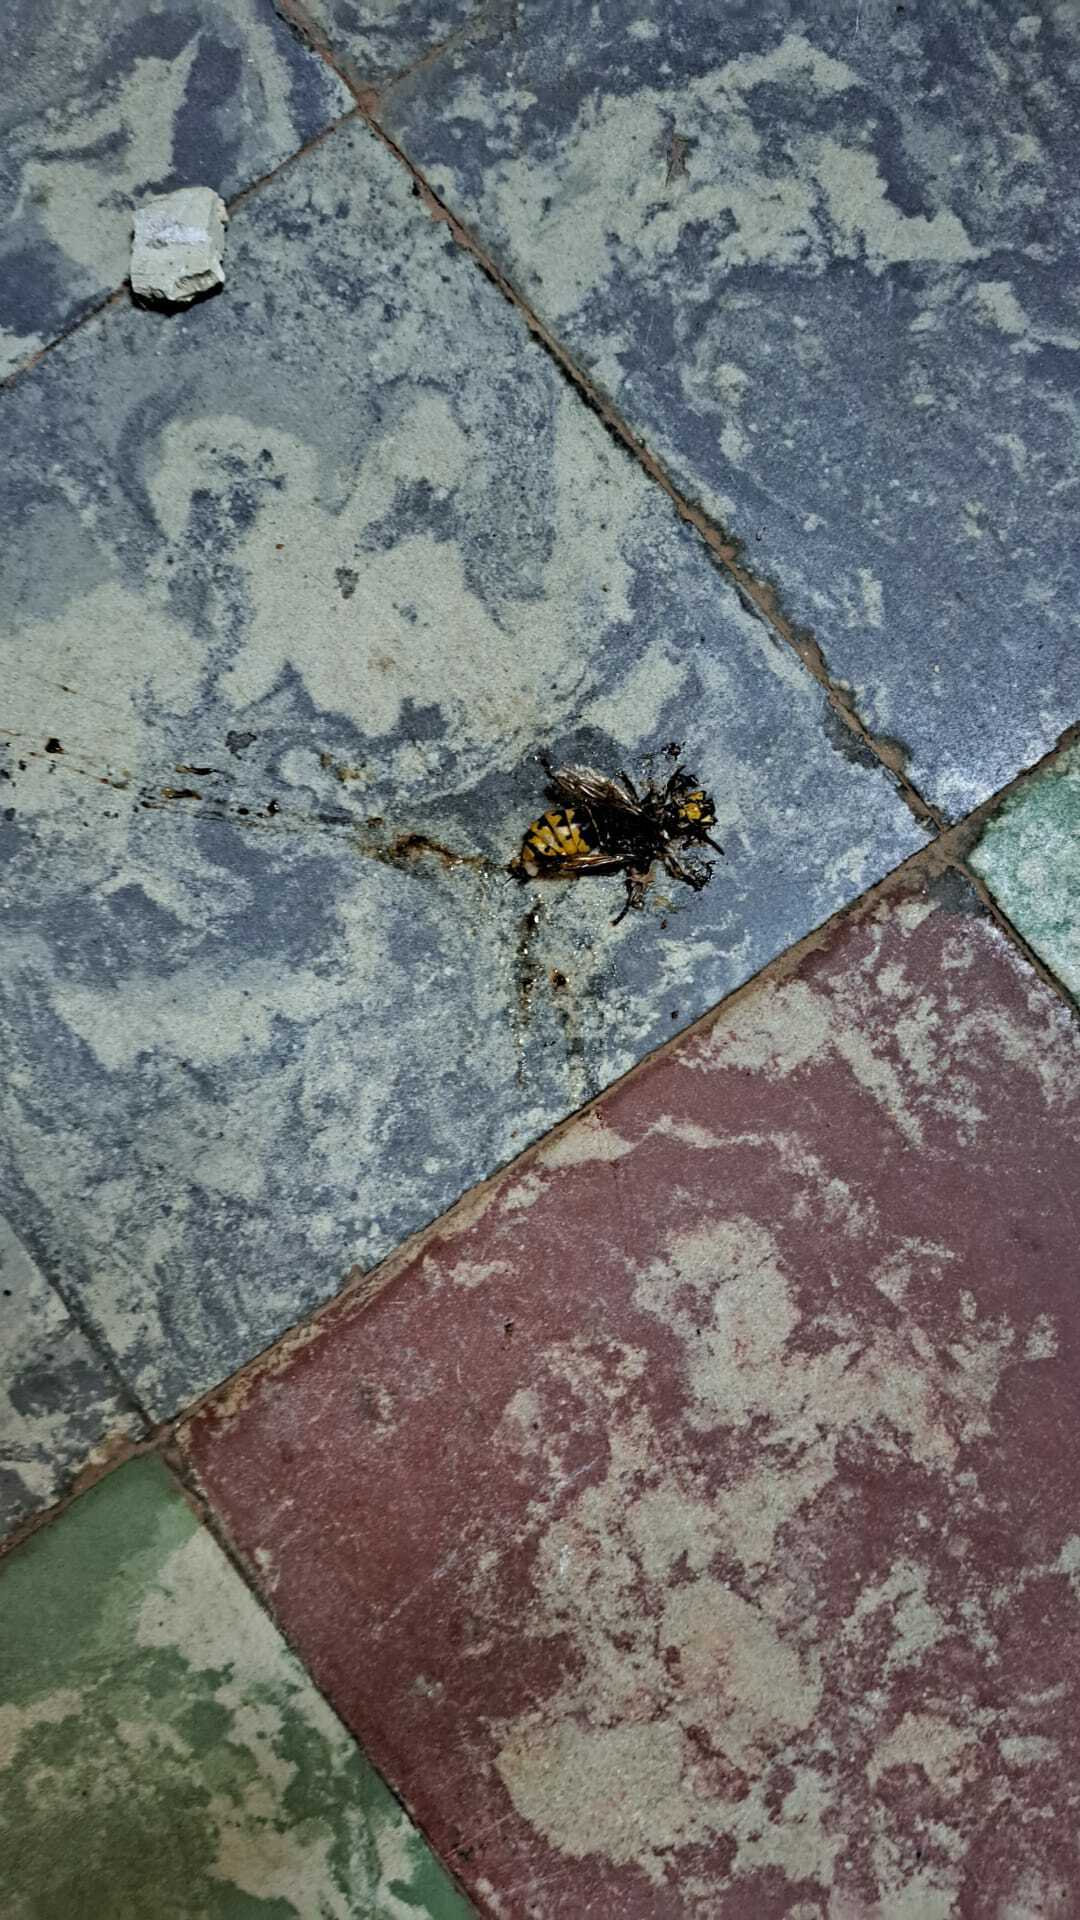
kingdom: Animalia
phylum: Arthropoda
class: Insecta
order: Hymenoptera
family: Vespidae
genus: Vespa
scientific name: Vespa crabro
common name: Hornet
